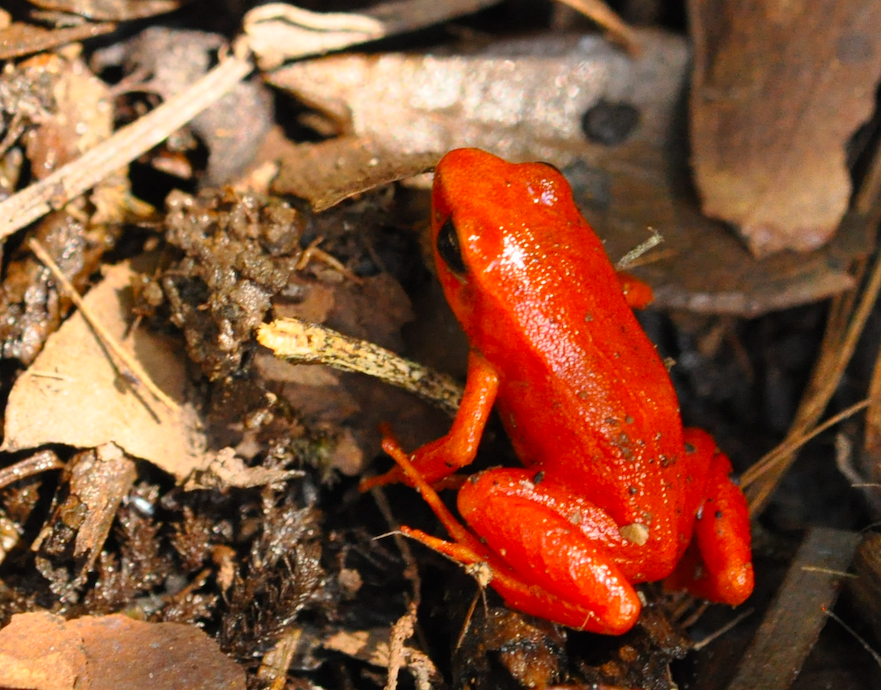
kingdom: Animalia
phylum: Chordata
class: Amphibia
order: Anura
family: Mantellidae
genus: Mantella
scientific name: Mantella aurantiaca
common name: Ginger tree frog
